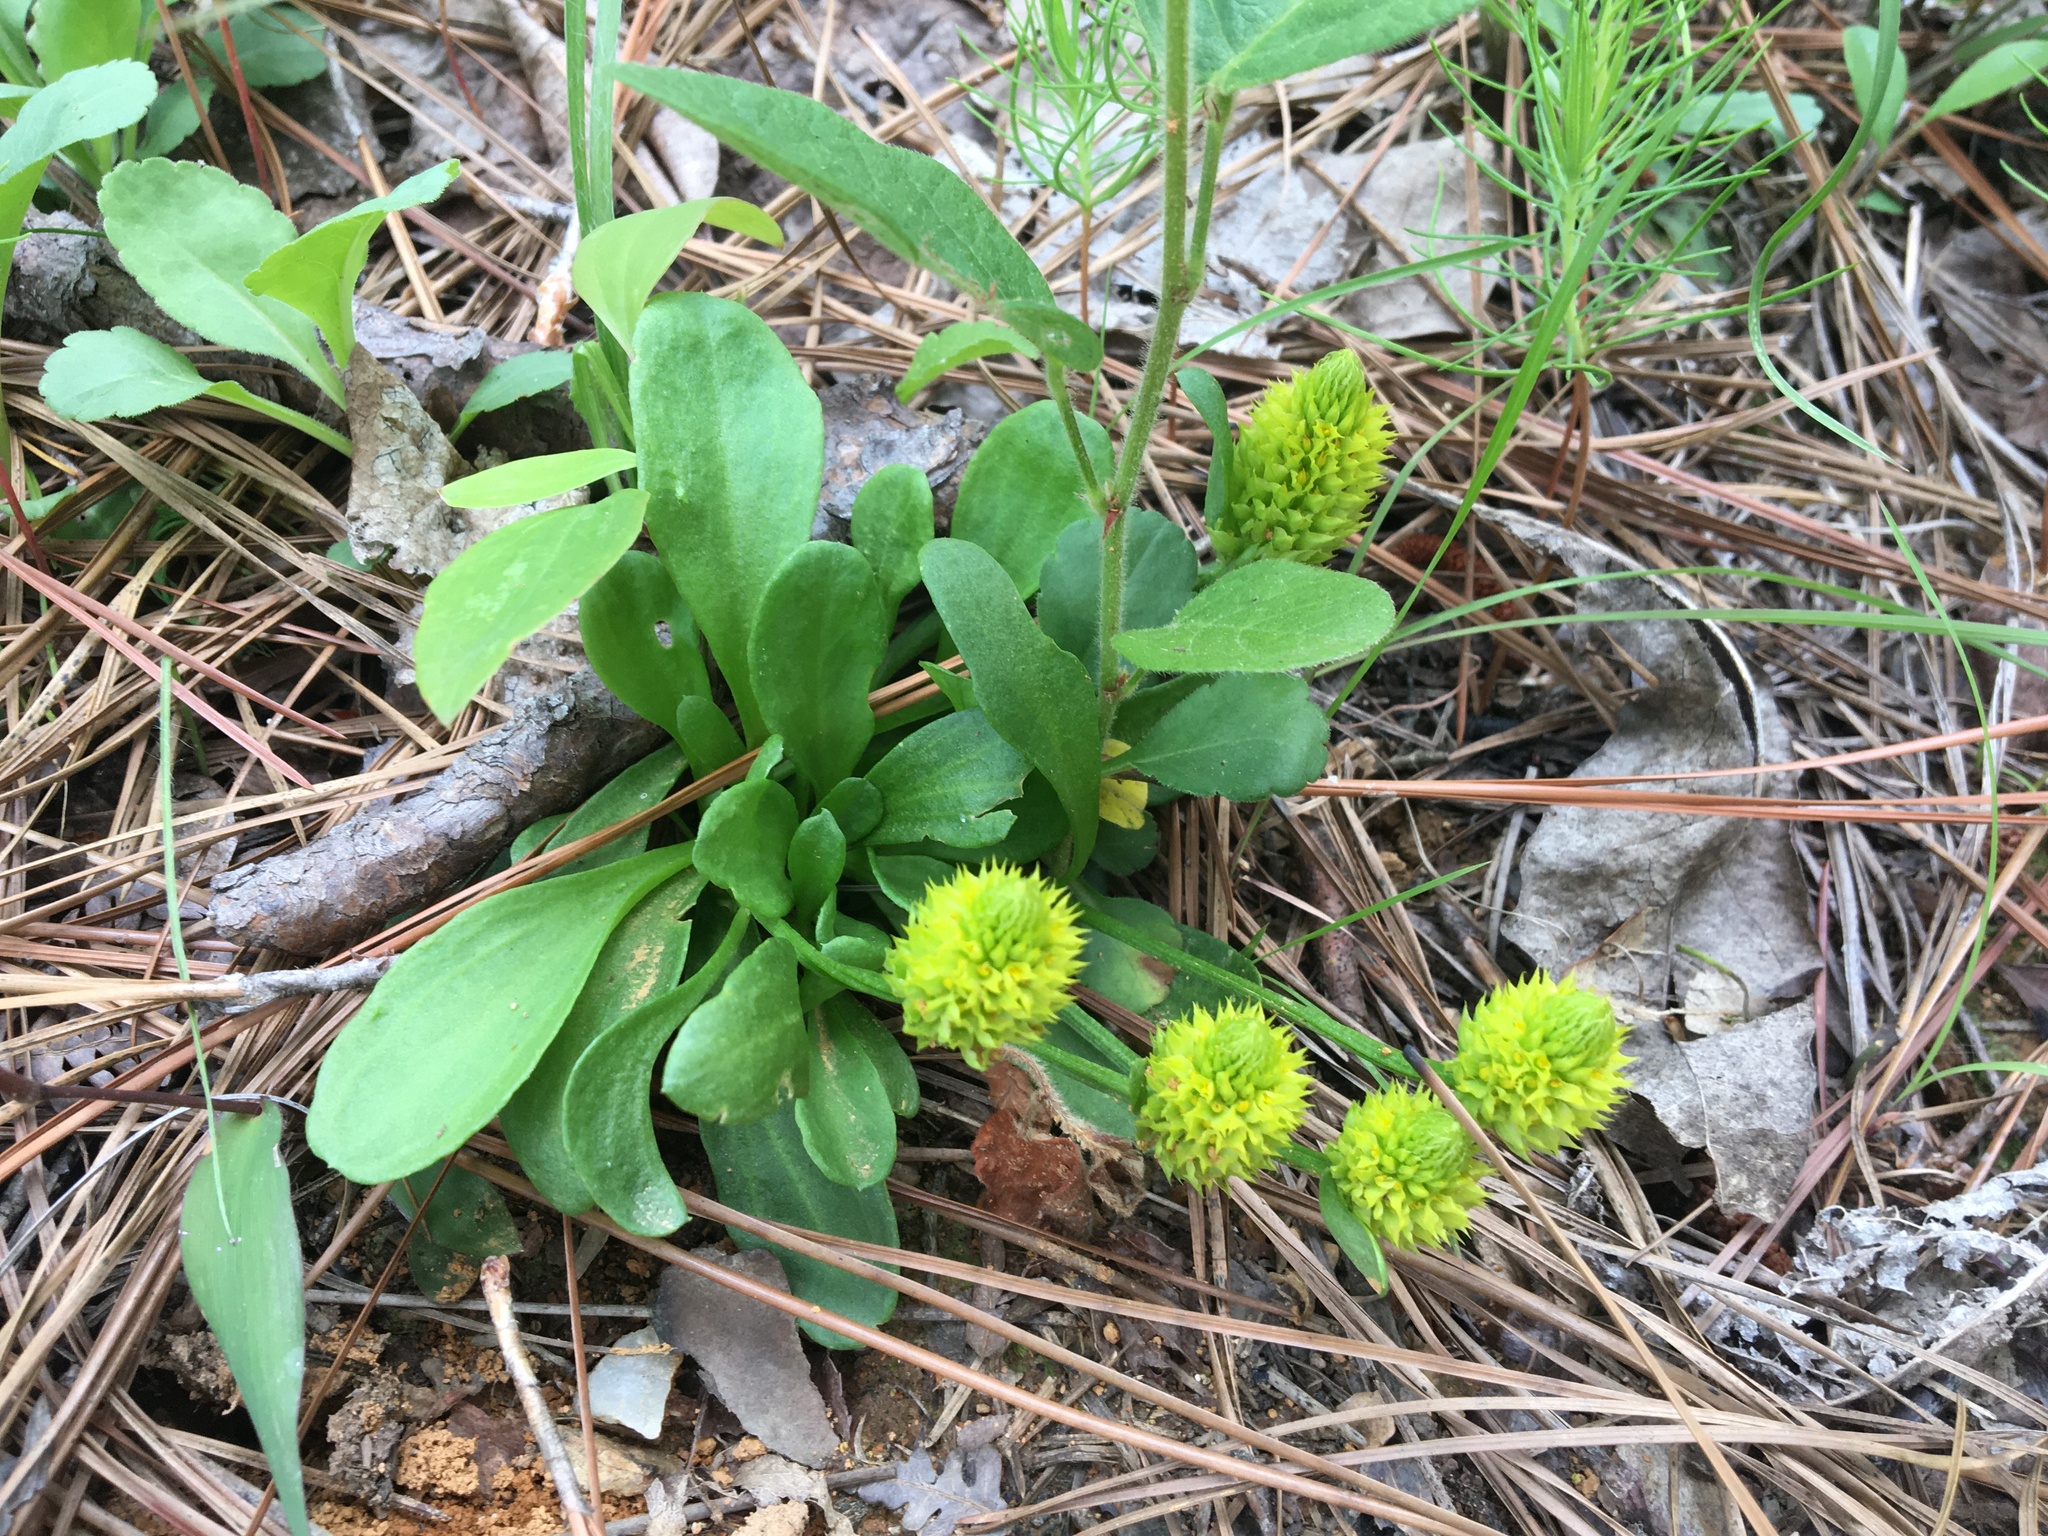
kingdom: Plantae
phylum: Tracheophyta
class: Magnoliopsida
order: Fabales
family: Polygalaceae
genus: Polygala
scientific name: Polygala nana
